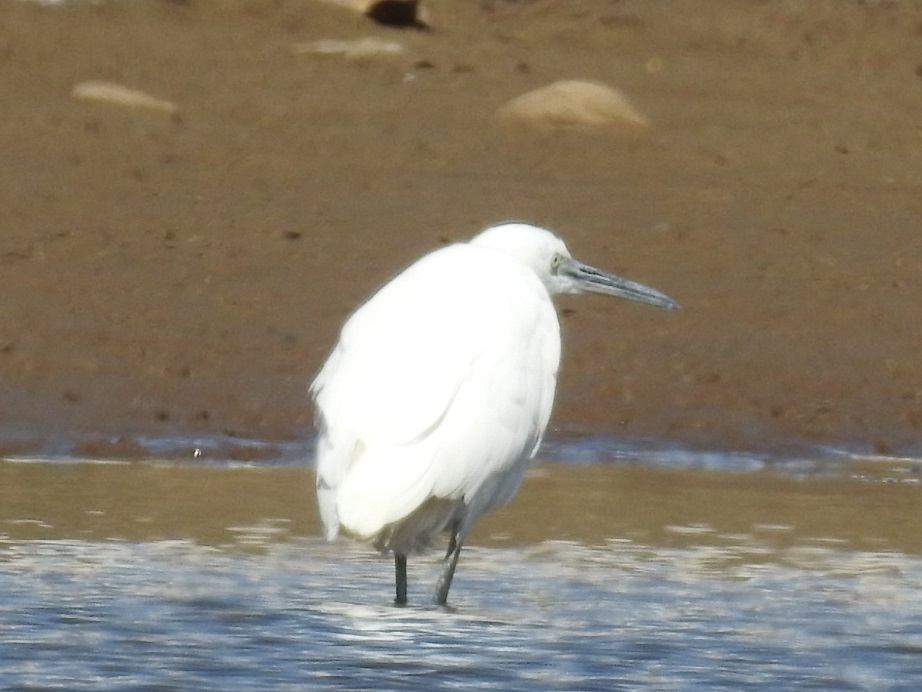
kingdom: Animalia
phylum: Chordata
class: Aves
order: Pelecaniformes
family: Ardeidae
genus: Egretta
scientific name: Egretta garzetta
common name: Little egret
